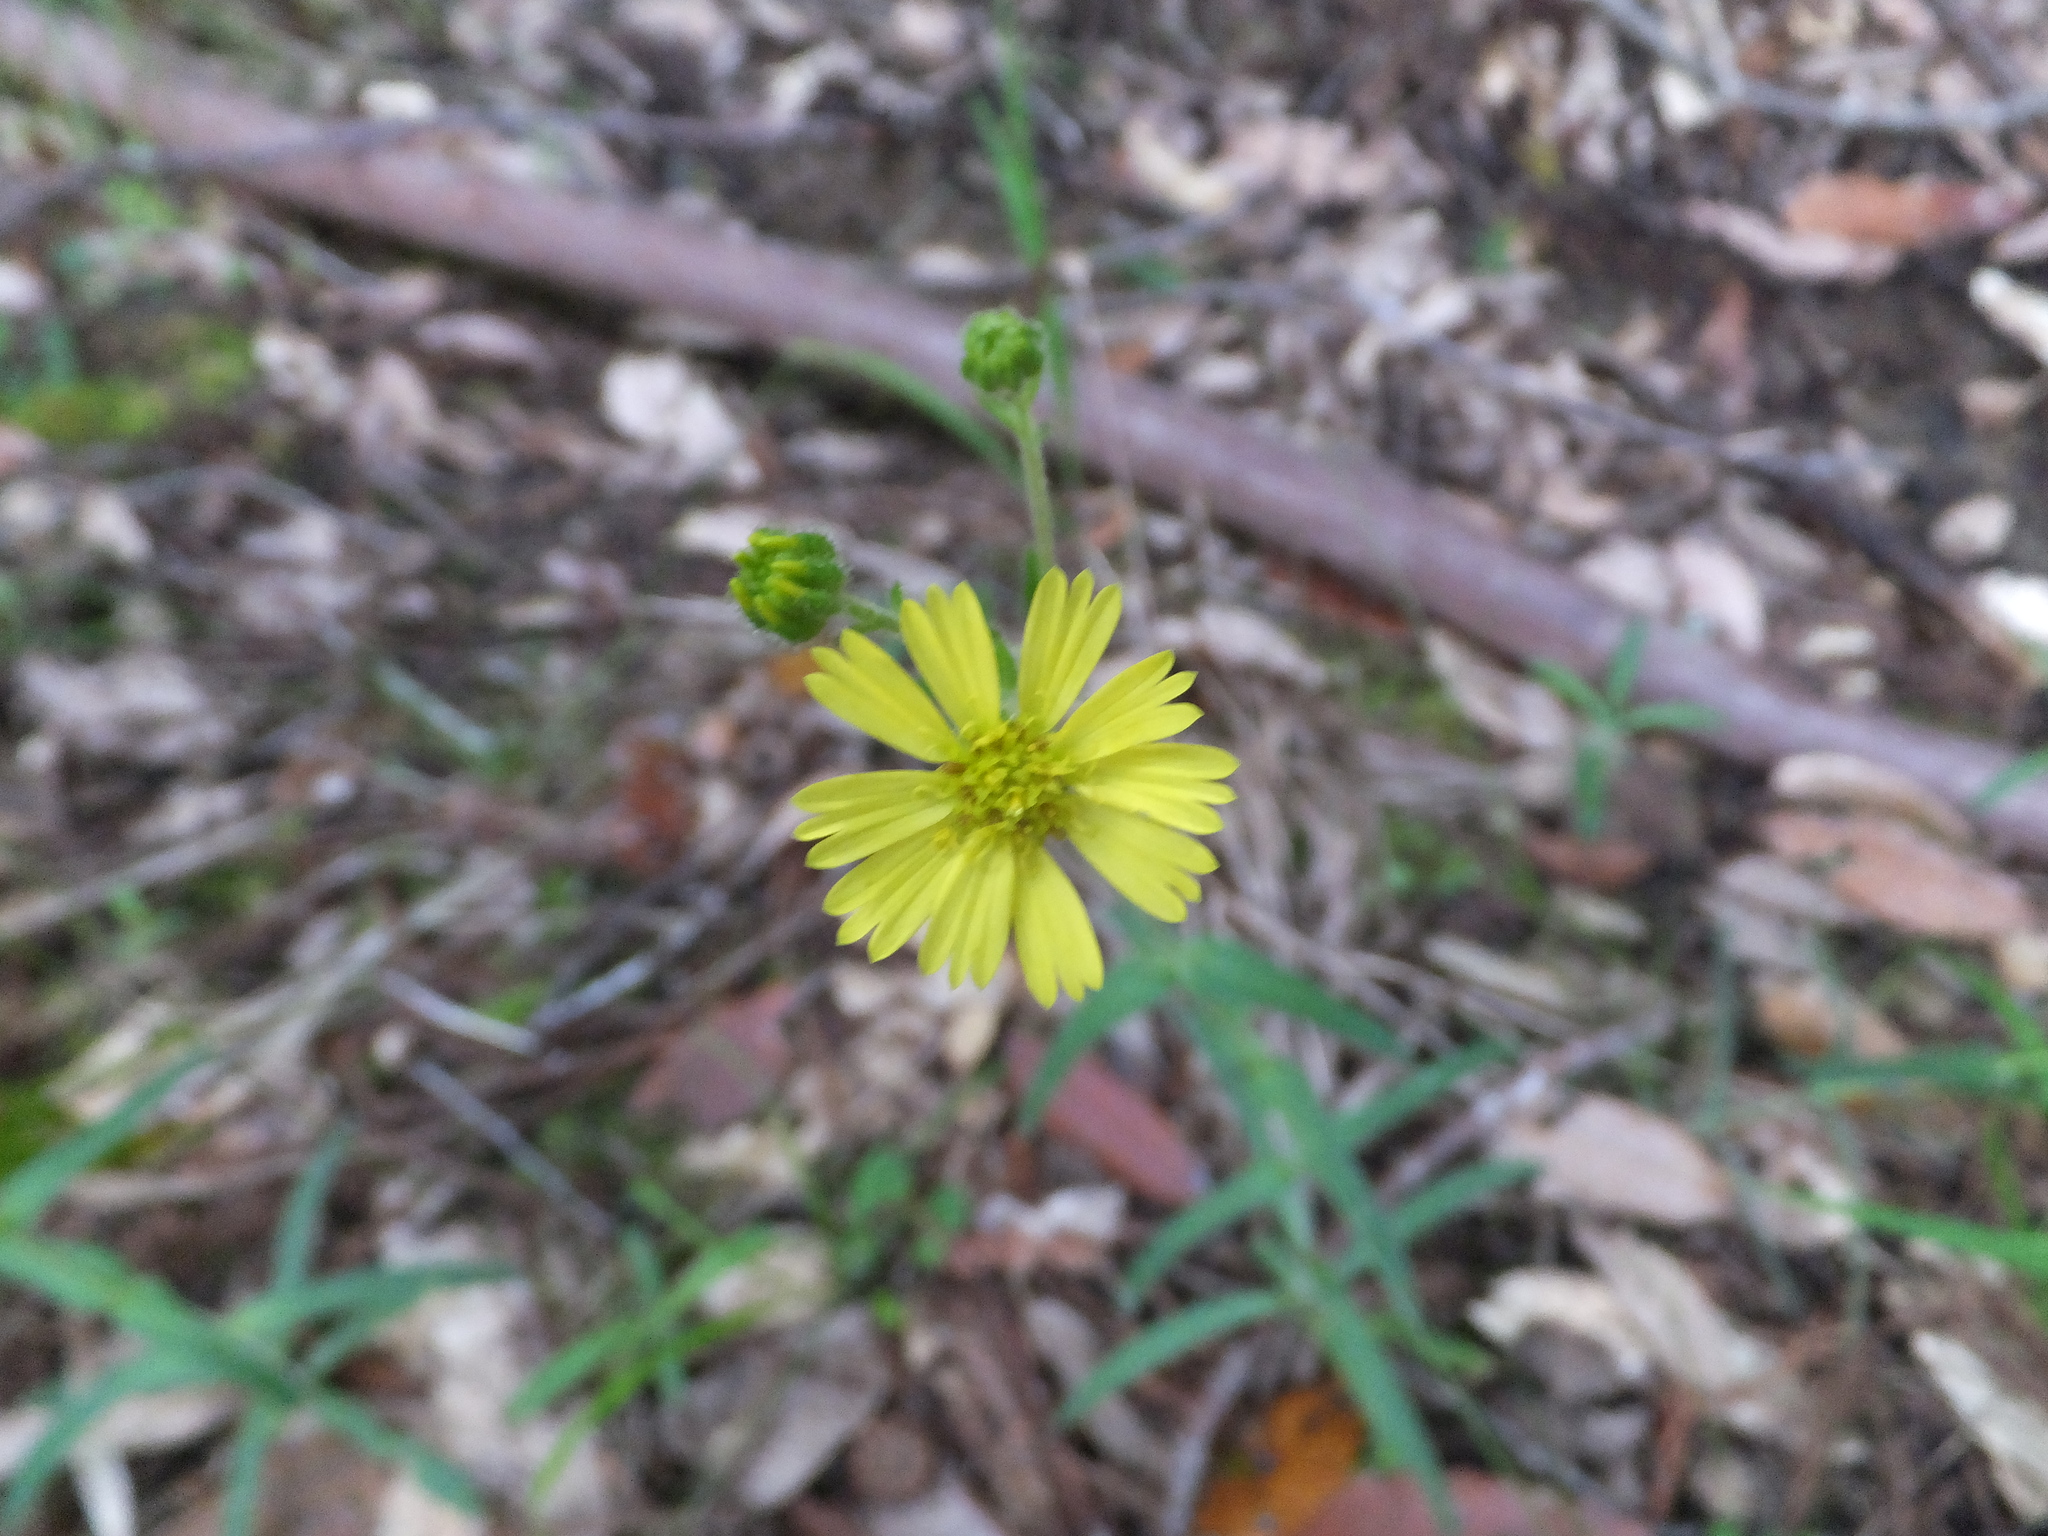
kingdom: Plantae
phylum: Tracheophyta
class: Magnoliopsida
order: Asterales
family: Asteraceae
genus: Anisocarpus
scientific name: Anisocarpus madioides
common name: Woodland madia
